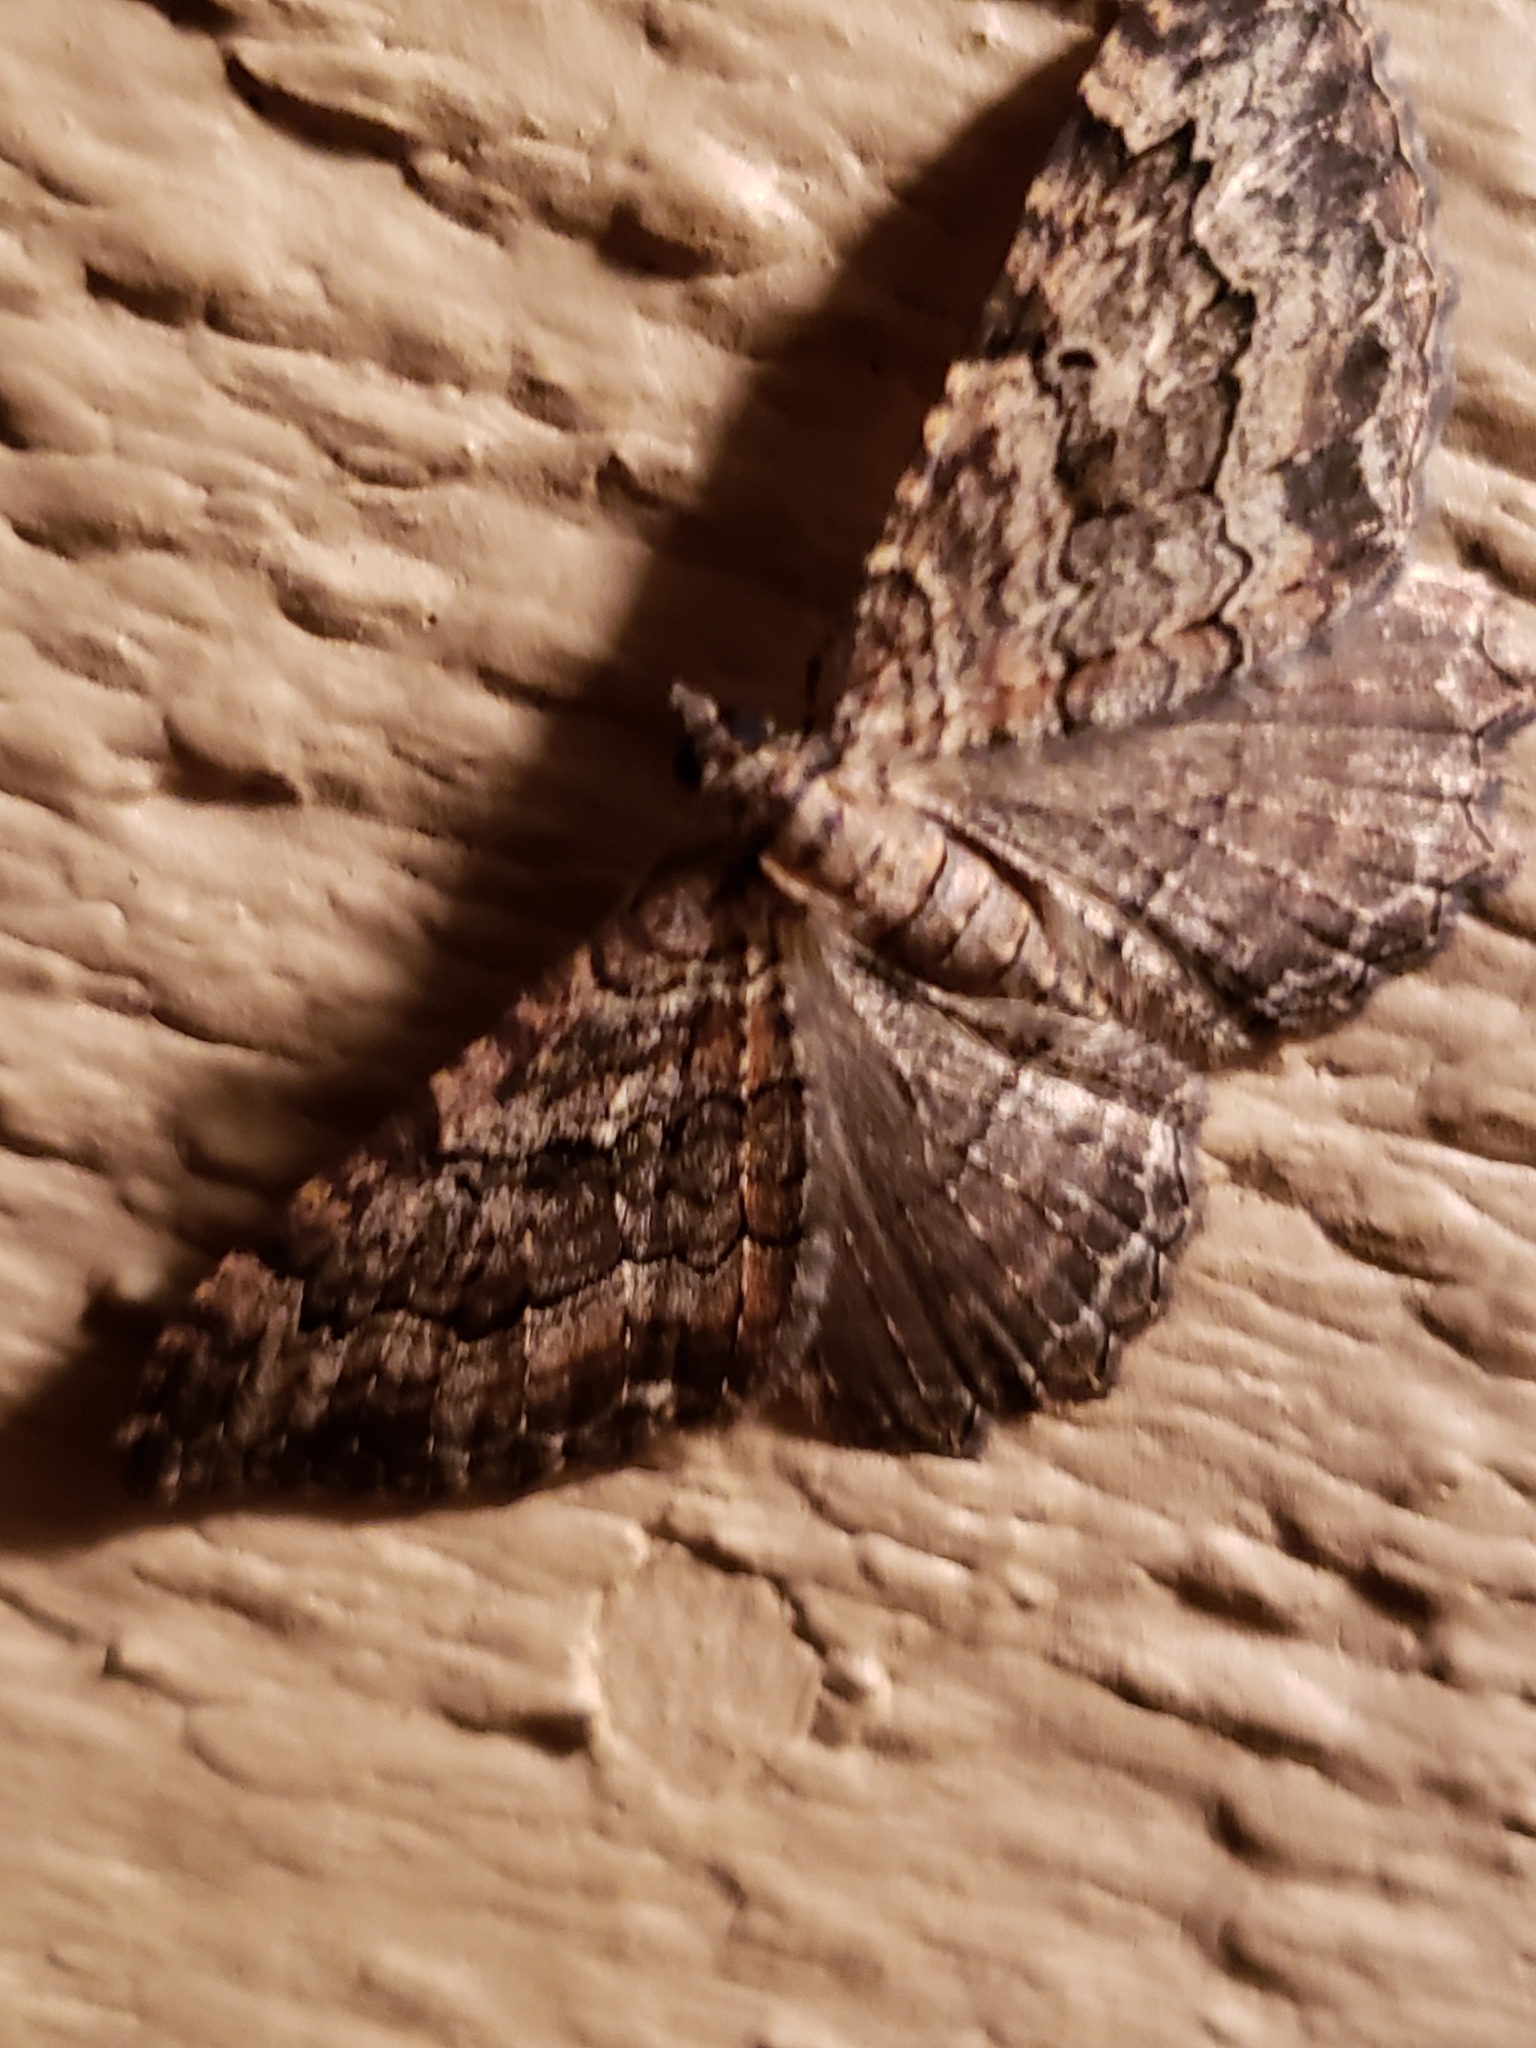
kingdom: Animalia
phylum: Arthropoda
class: Insecta
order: Lepidoptera
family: Geometridae
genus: Rheumaptera
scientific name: Rheumaptera
